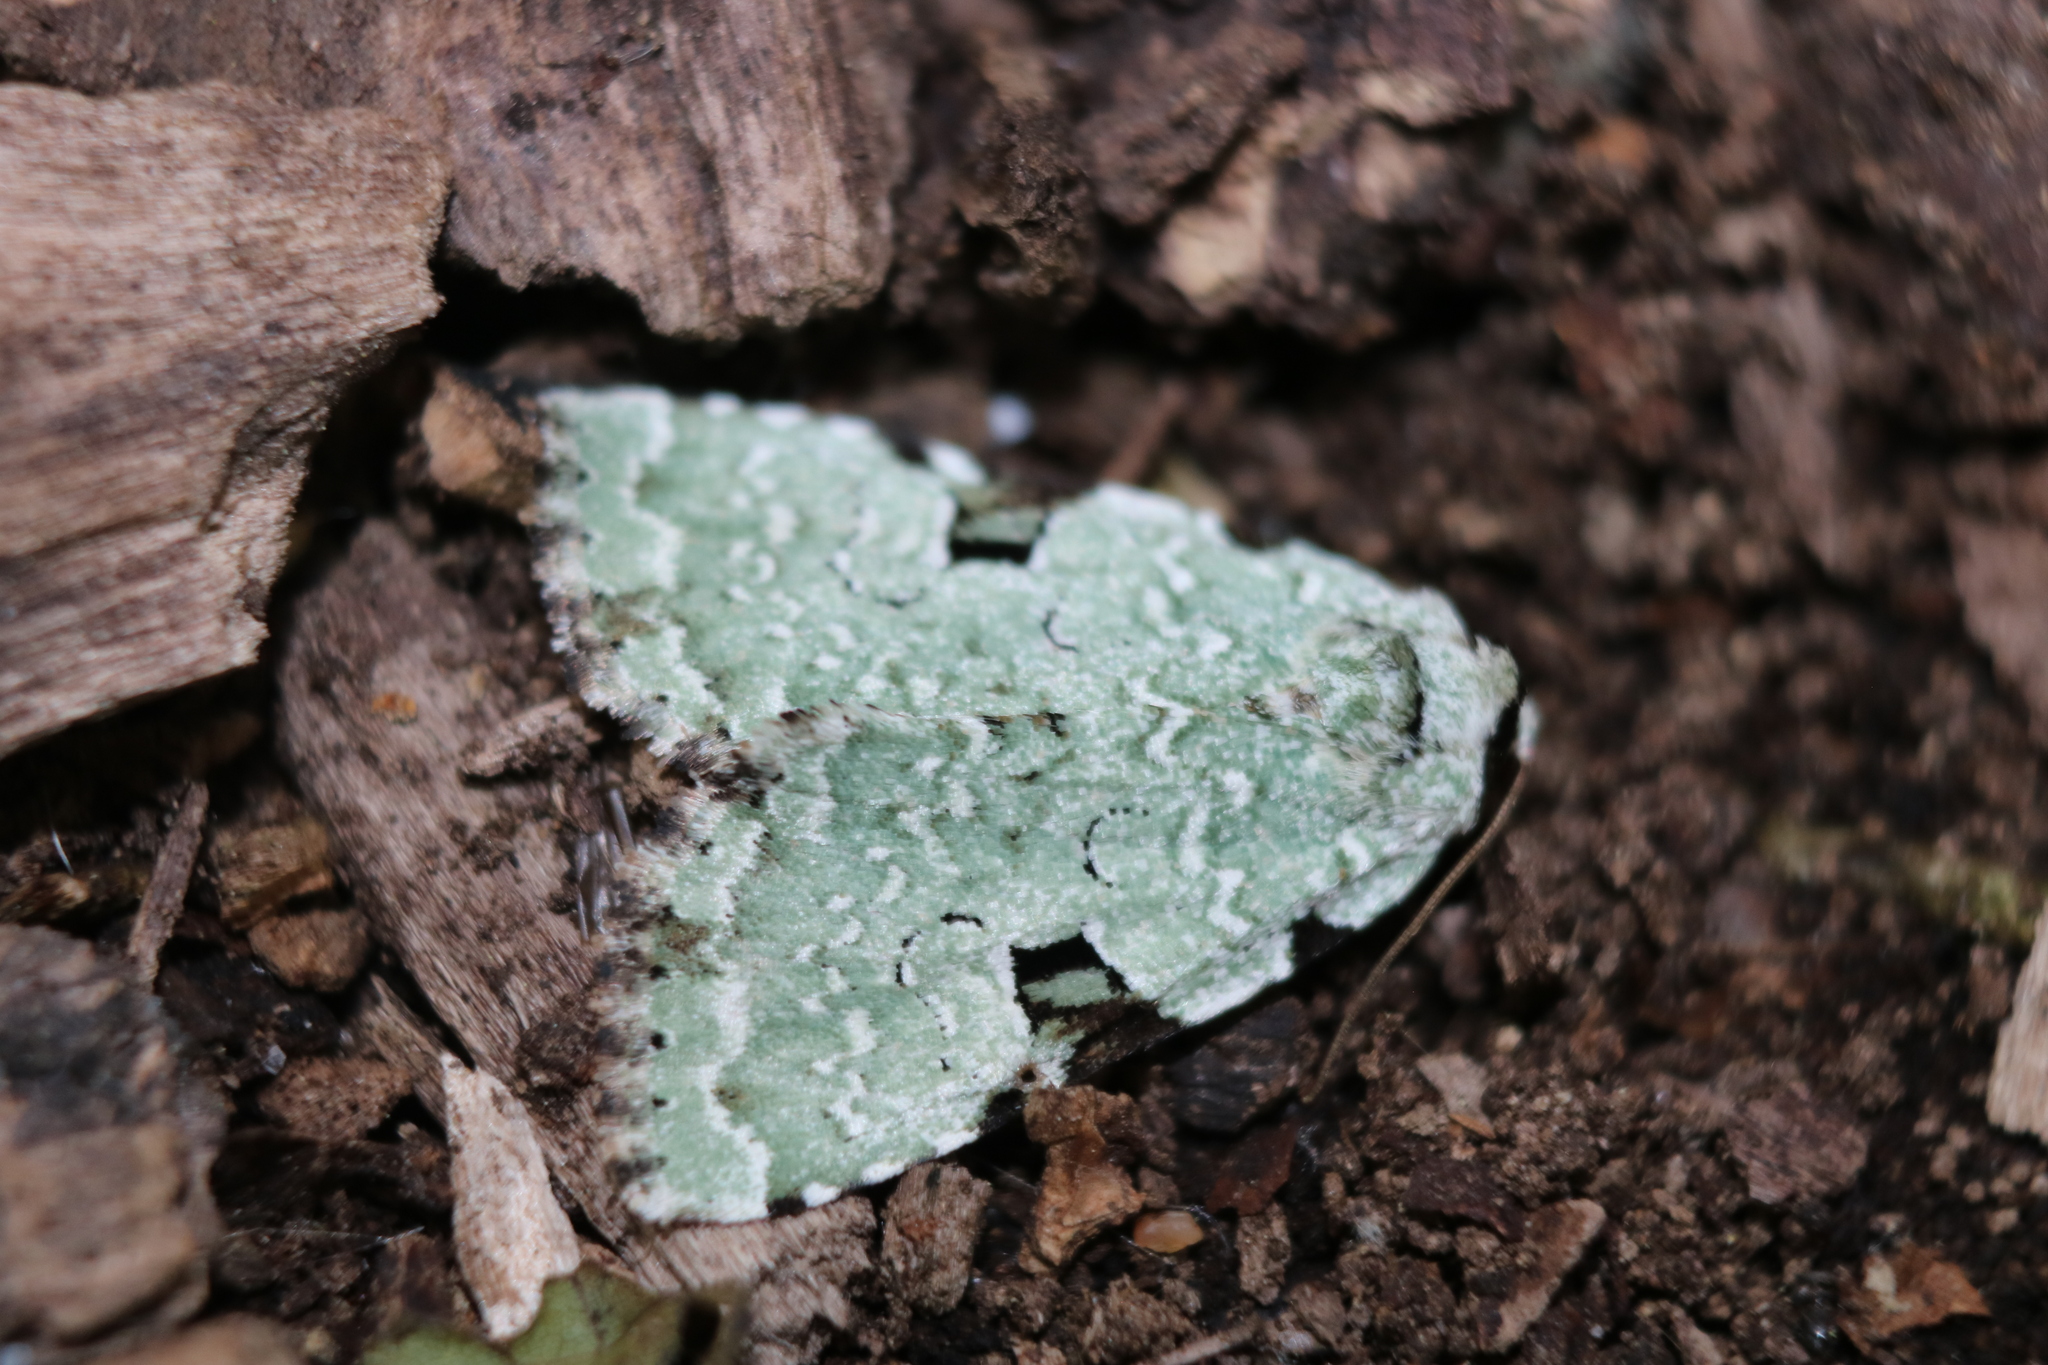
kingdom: Animalia
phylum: Arthropoda
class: Insecta
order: Lepidoptera
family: Noctuidae
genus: Leuconycta
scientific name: Leuconycta diphteroides
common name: Green leuconycta moth
